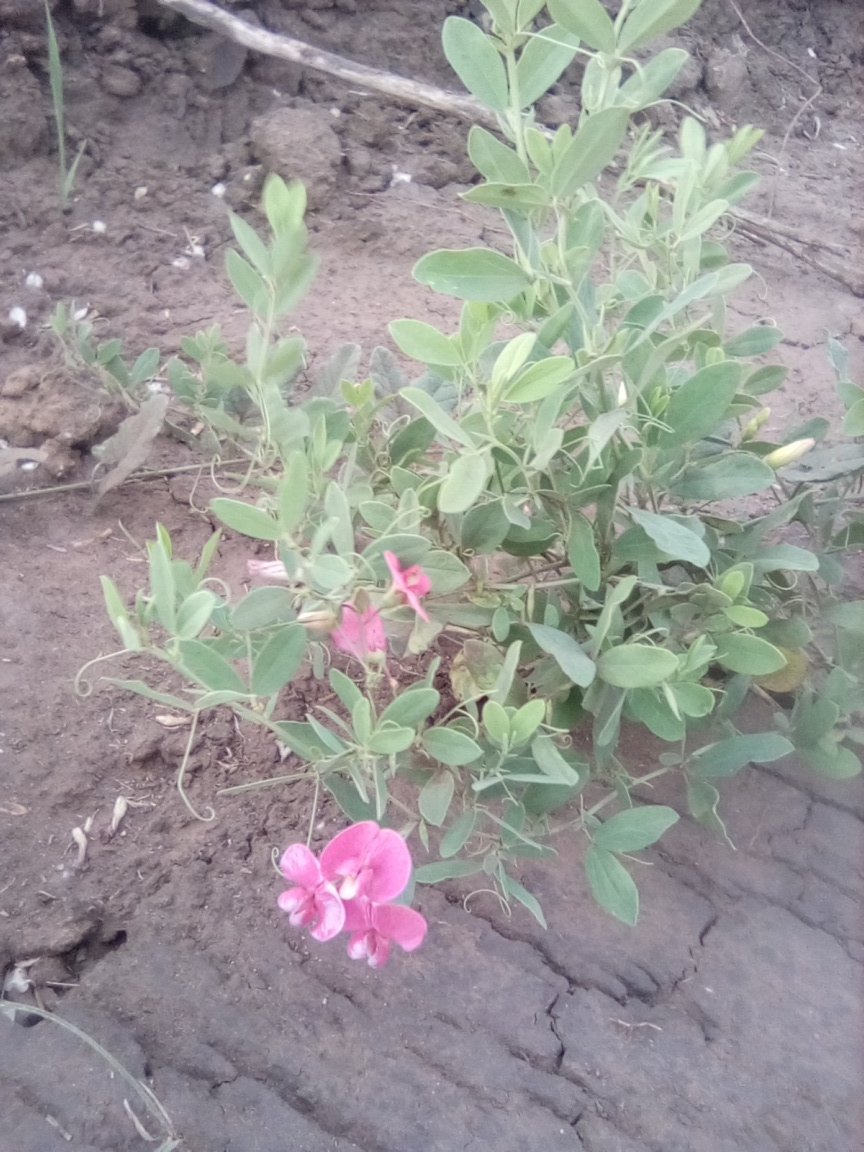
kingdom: Plantae
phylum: Tracheophyta
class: Magnoliopsida
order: Fabales
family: Fabaceae
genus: Lathyrus
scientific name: Lathyrus tuberosus
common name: Tuberous pea
